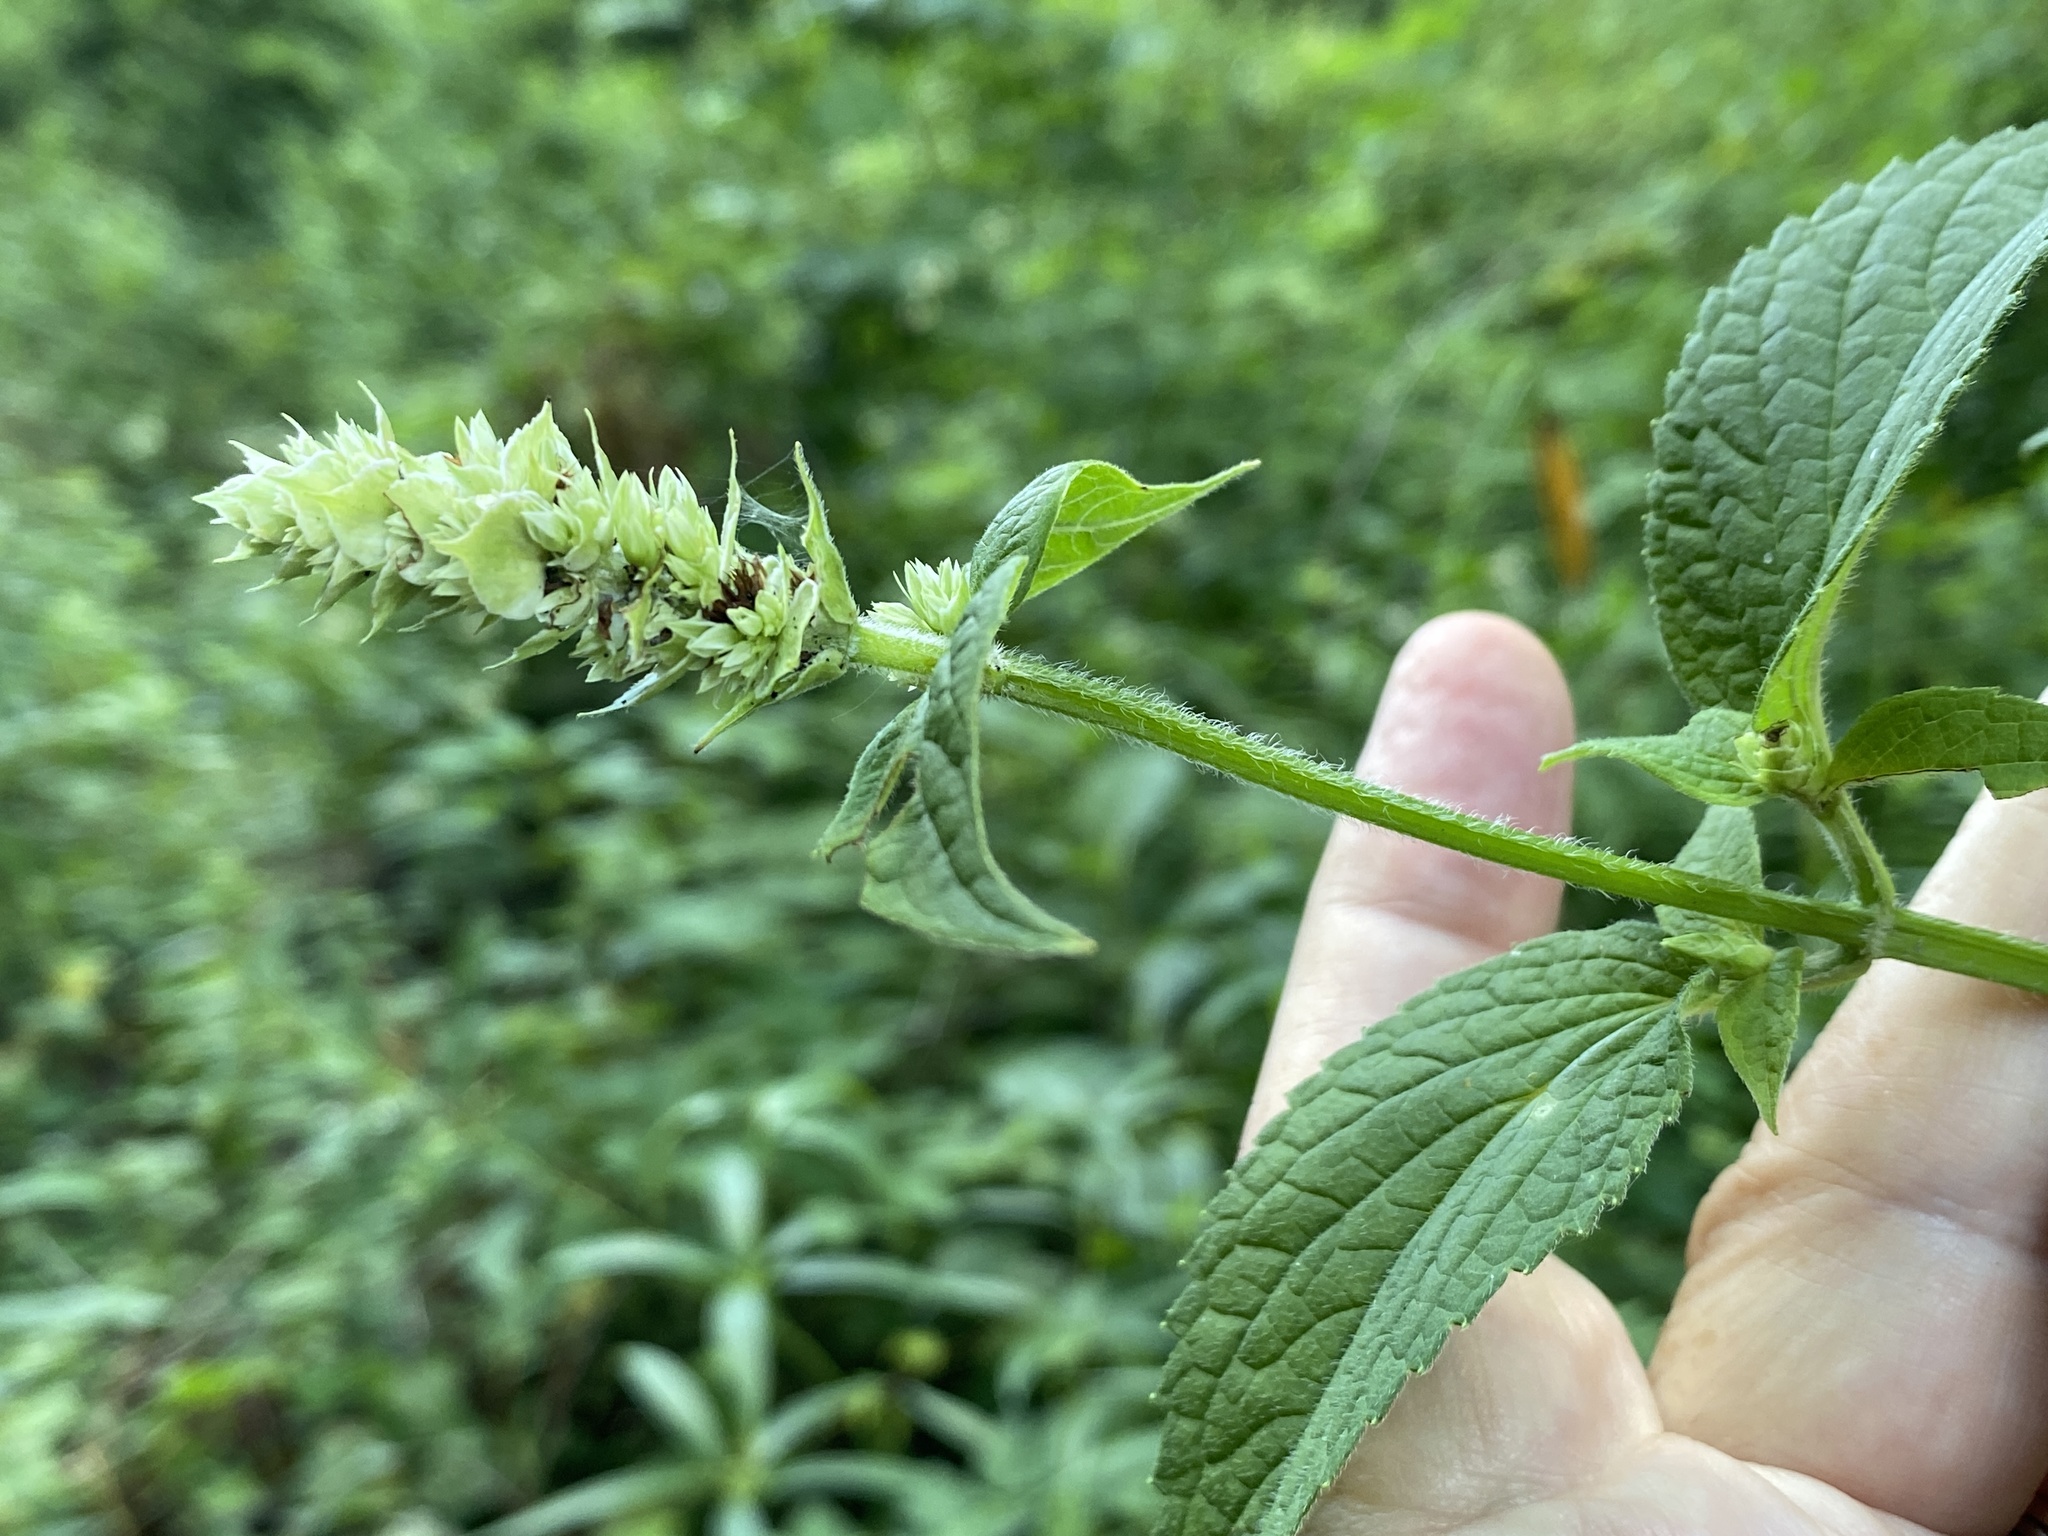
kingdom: Plantae
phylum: Tracheophyta
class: Magnoliopsida
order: Lamiales
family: Lamiaceae
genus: Agastache
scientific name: Agastache scrophulariifolia
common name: Figwort giant hyssop
